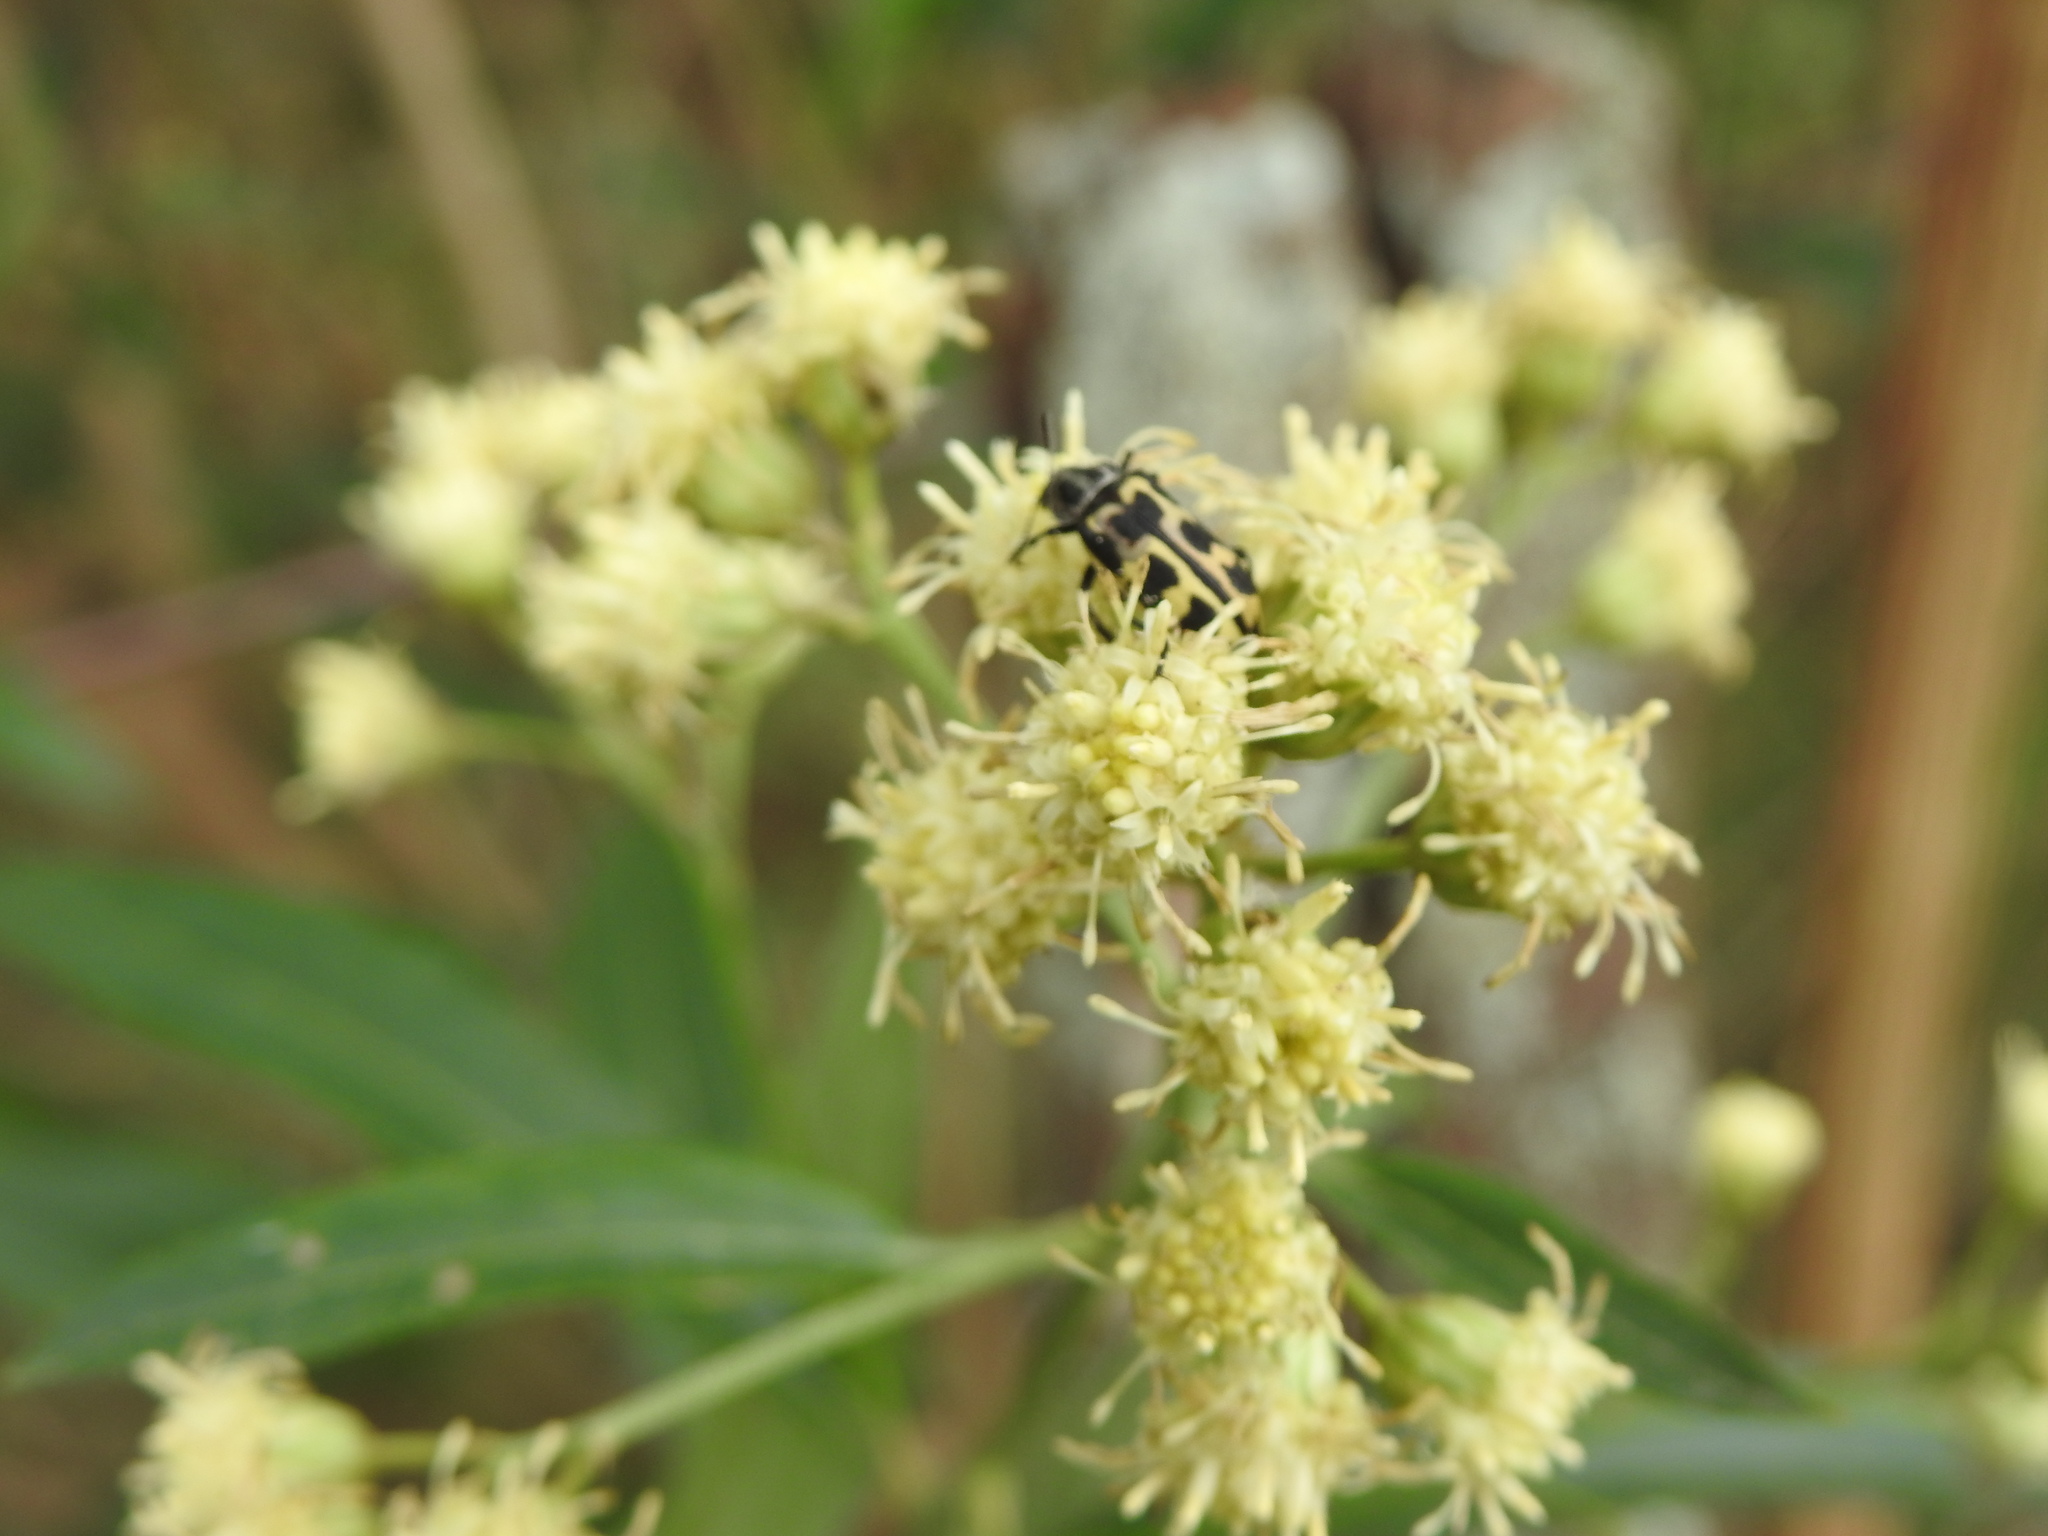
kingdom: Animalia
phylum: Arthropoda
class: Insecta
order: Coleoptera
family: Melyridae
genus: Astylus
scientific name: Astylus atromaculatus
